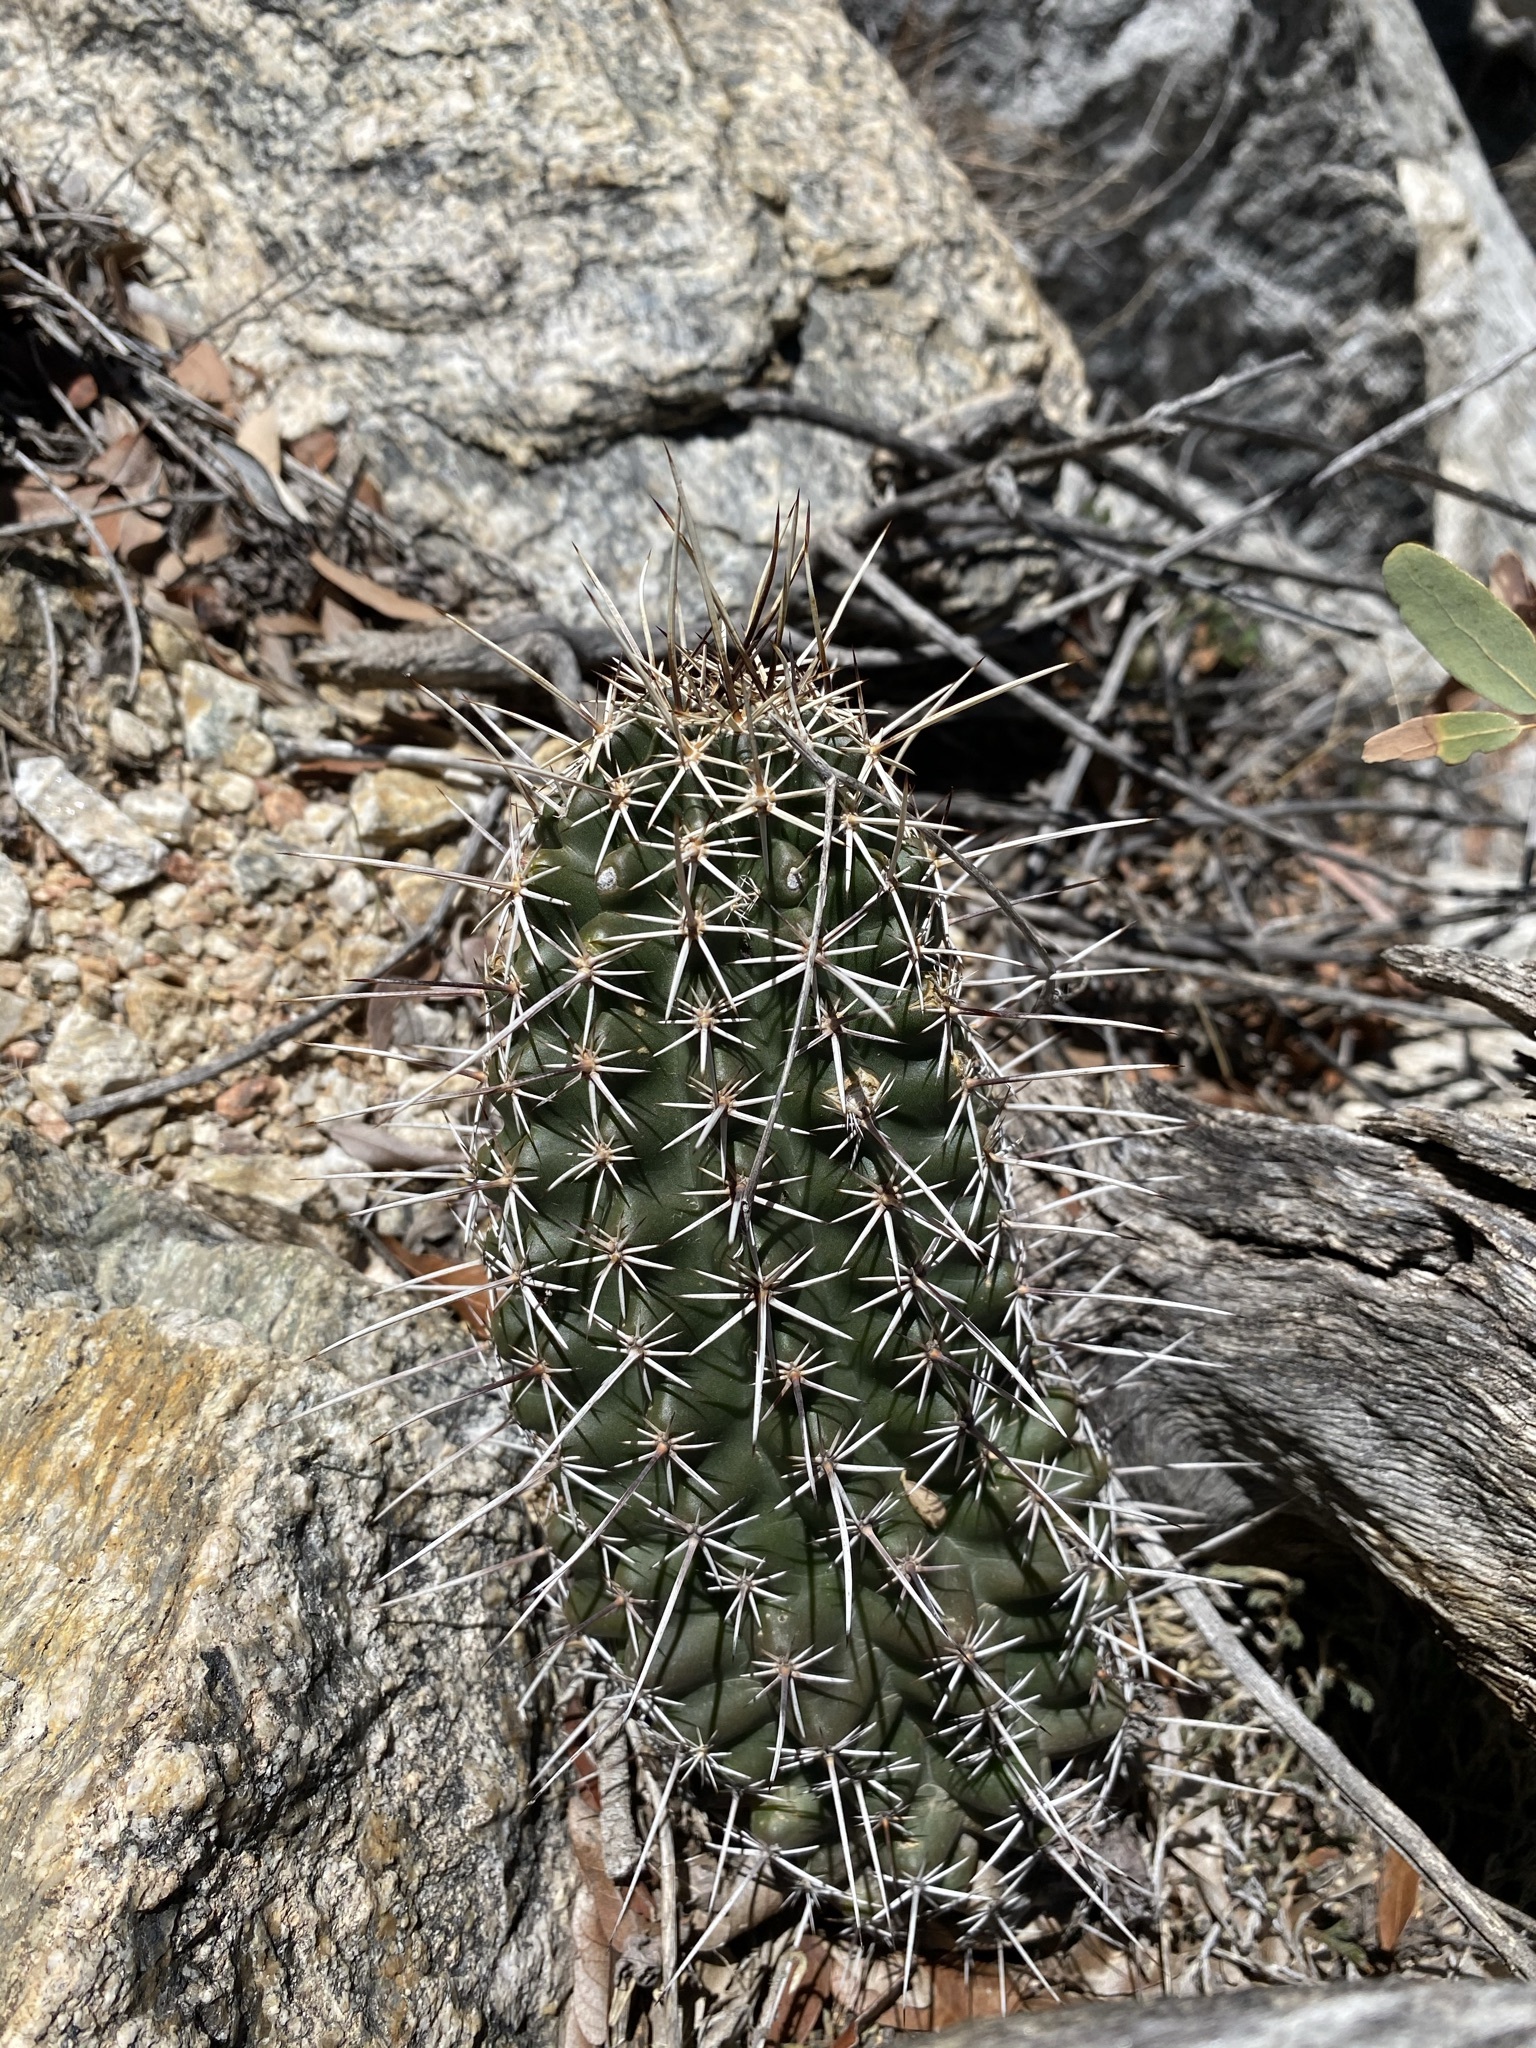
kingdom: Plantae
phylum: Tracheophyta
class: Magnoliopsida
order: Caryophyllales
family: Cactaceae
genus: Echinocereus
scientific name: Echinocereus fendleri
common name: Fendler's hedgehog cactus
